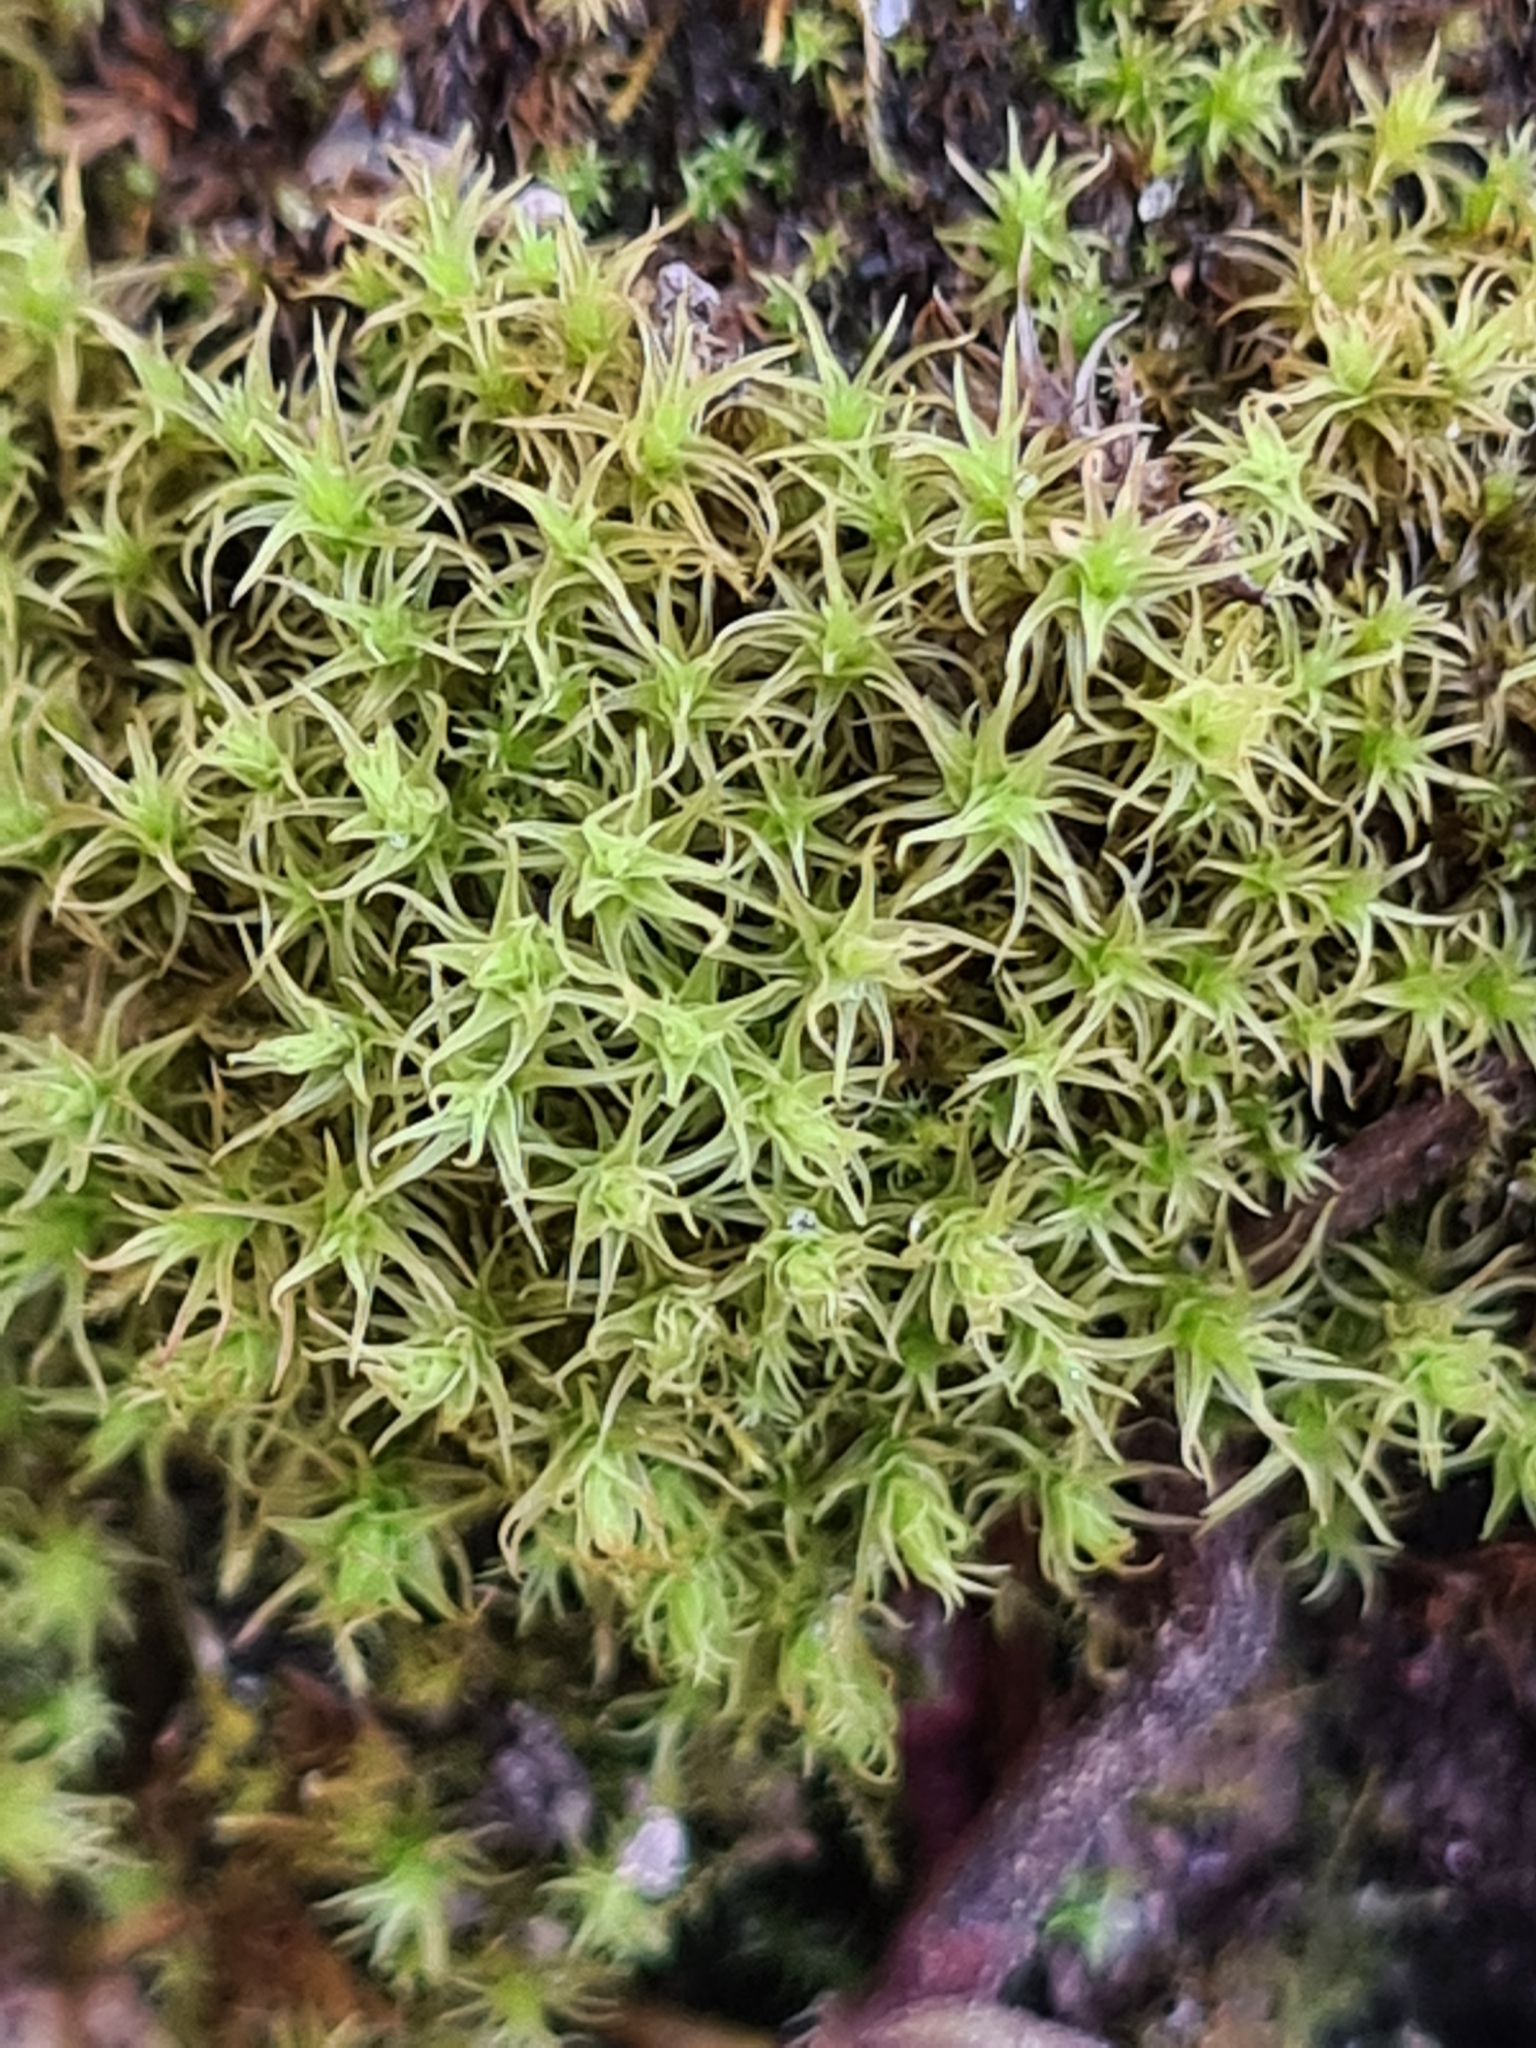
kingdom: Plantae
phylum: Bryophyta
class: Bryopsida
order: Pottiales
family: Pottiaceae
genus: Pleurochaete
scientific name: Pleurochaete squarrosa
